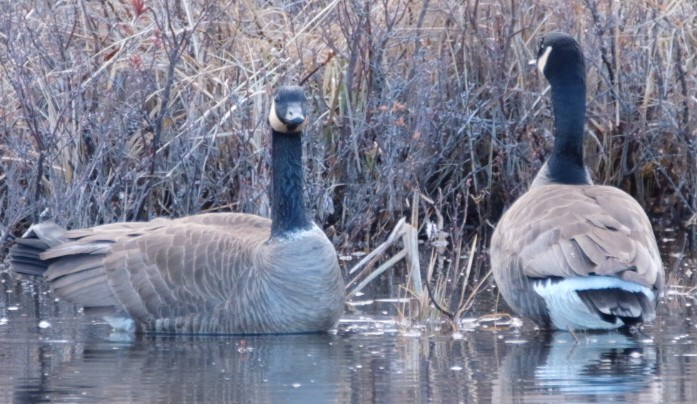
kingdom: Animalia
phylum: Chordata
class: Aves
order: Anseriformes
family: Anatidae
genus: Branta
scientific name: Branta canadensis
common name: Canada goose
